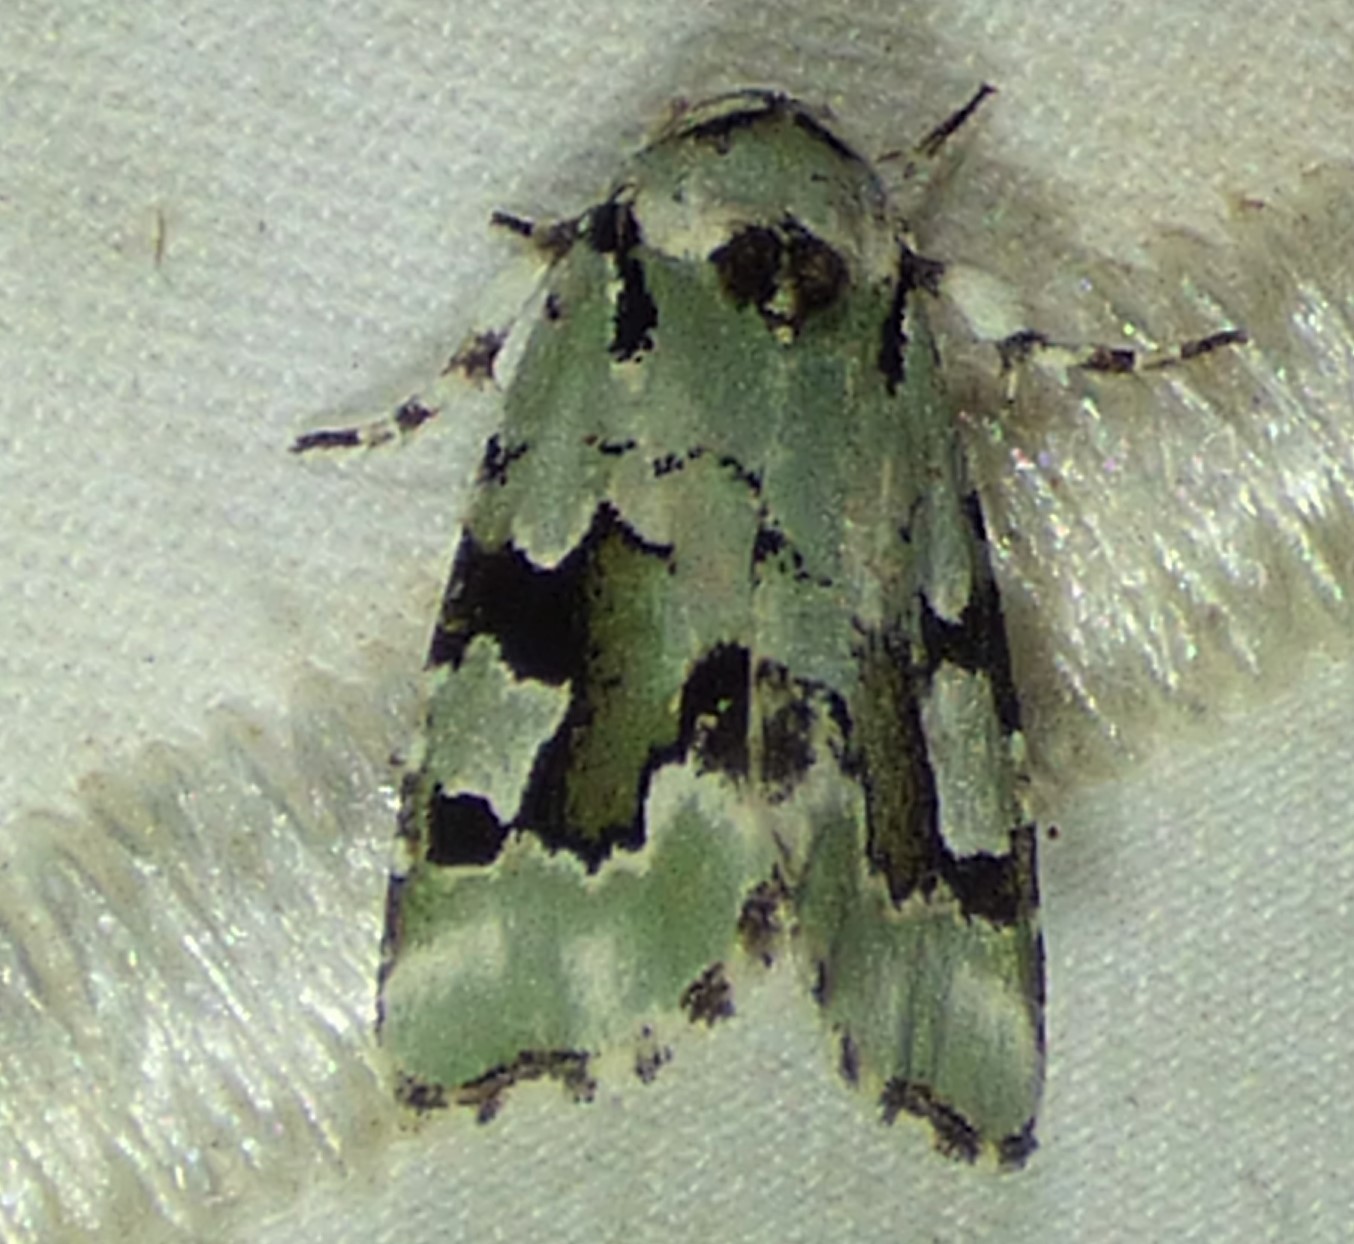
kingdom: Animalia
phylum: Arthropoda
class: Insecta
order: Lepidoptera
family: Noctuidae
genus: Emarginea
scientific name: Emarginea percara
